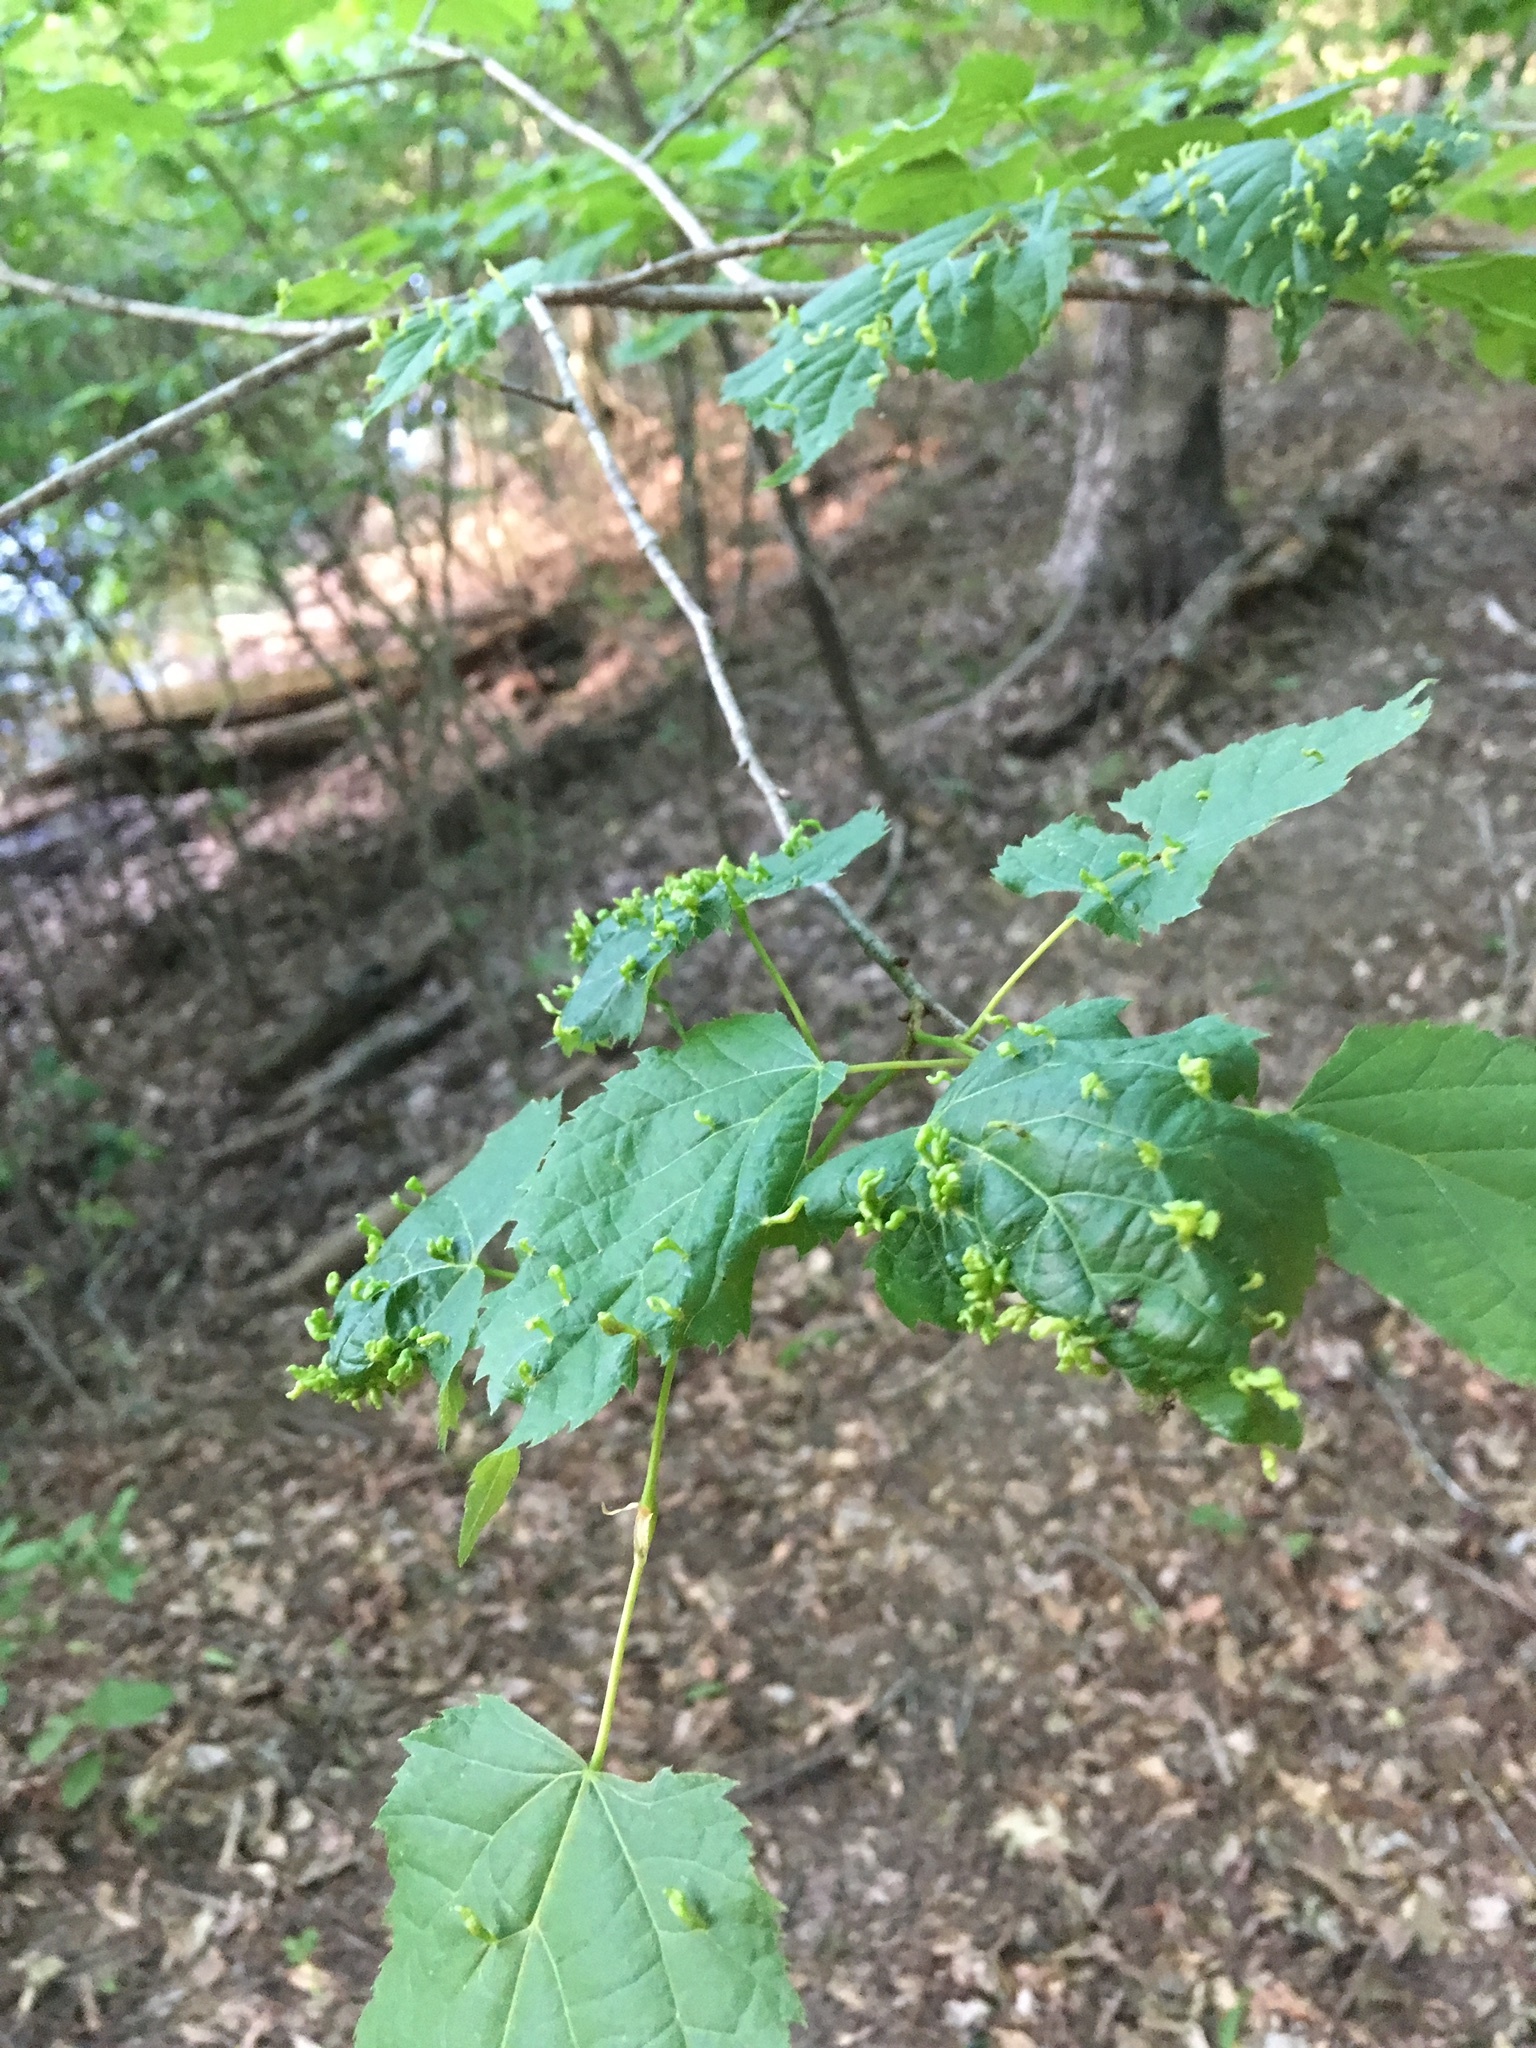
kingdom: Animalia
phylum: Arthropoda
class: Arachnida
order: Trombidiformes
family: Eriophyidae
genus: Eriophyes
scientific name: Eriophyes tiliae
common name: Red nail gall mite
